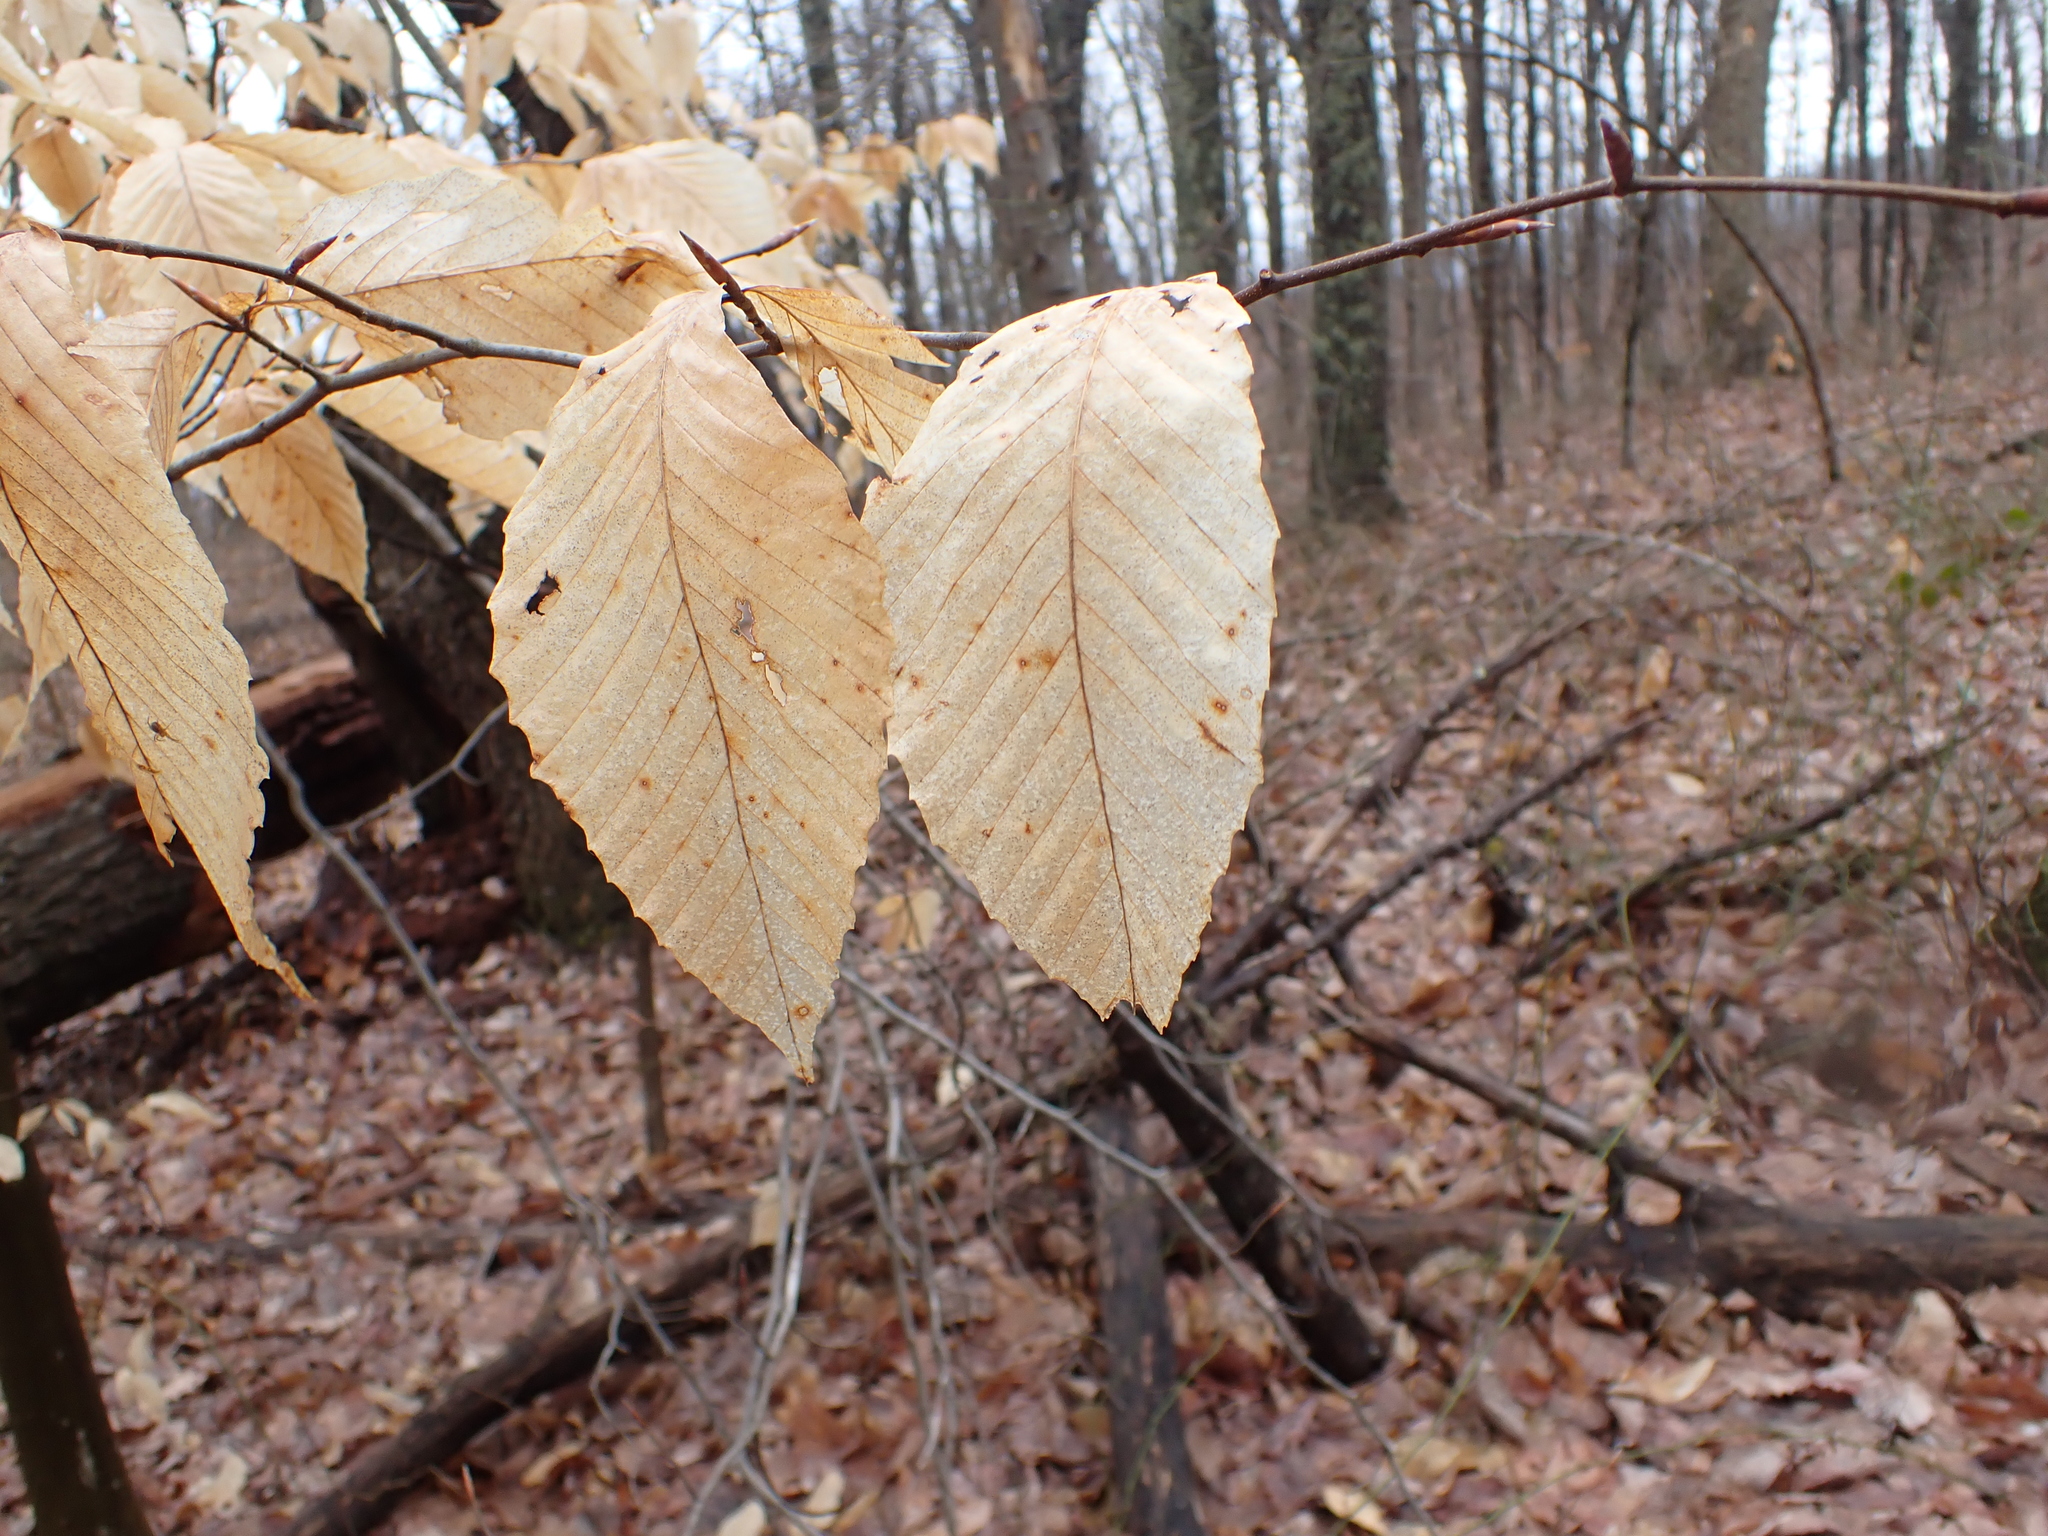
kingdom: Plantae
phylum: Tracheophyta
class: Magnoliopsida
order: Fagales
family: Fagaceae
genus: Fagus
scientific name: Fagus grandifolia
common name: American beech
